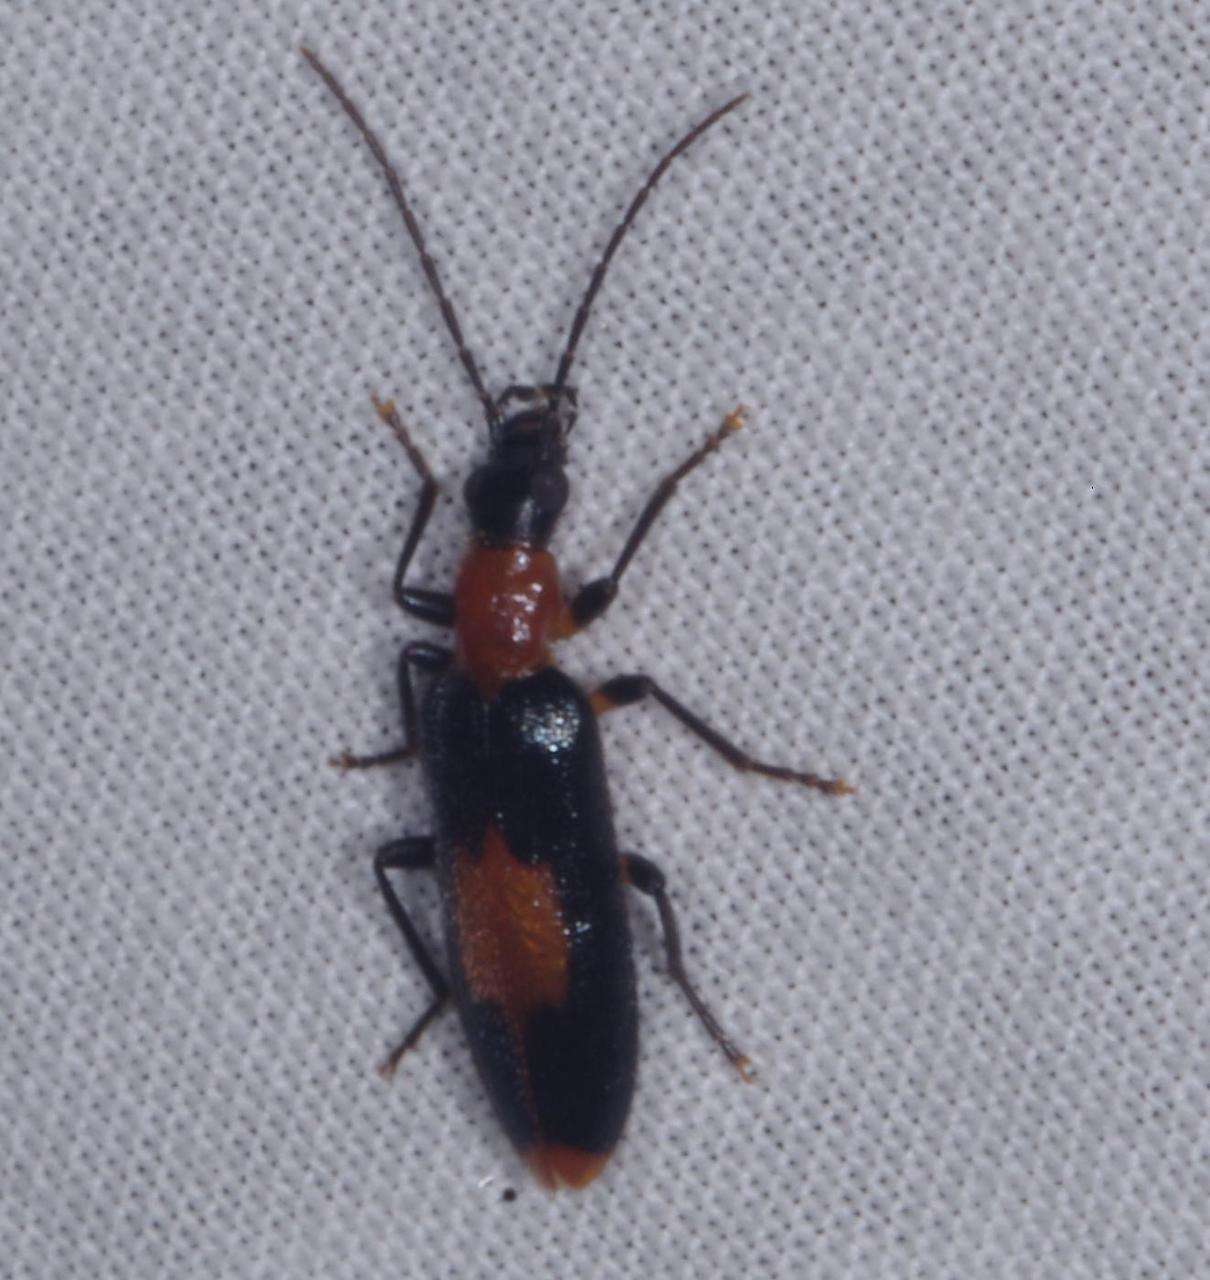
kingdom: Animalia
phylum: Arthropoda
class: Insecta
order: Coleoptera
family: Oedemeridae
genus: Copidita
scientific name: Copidita
